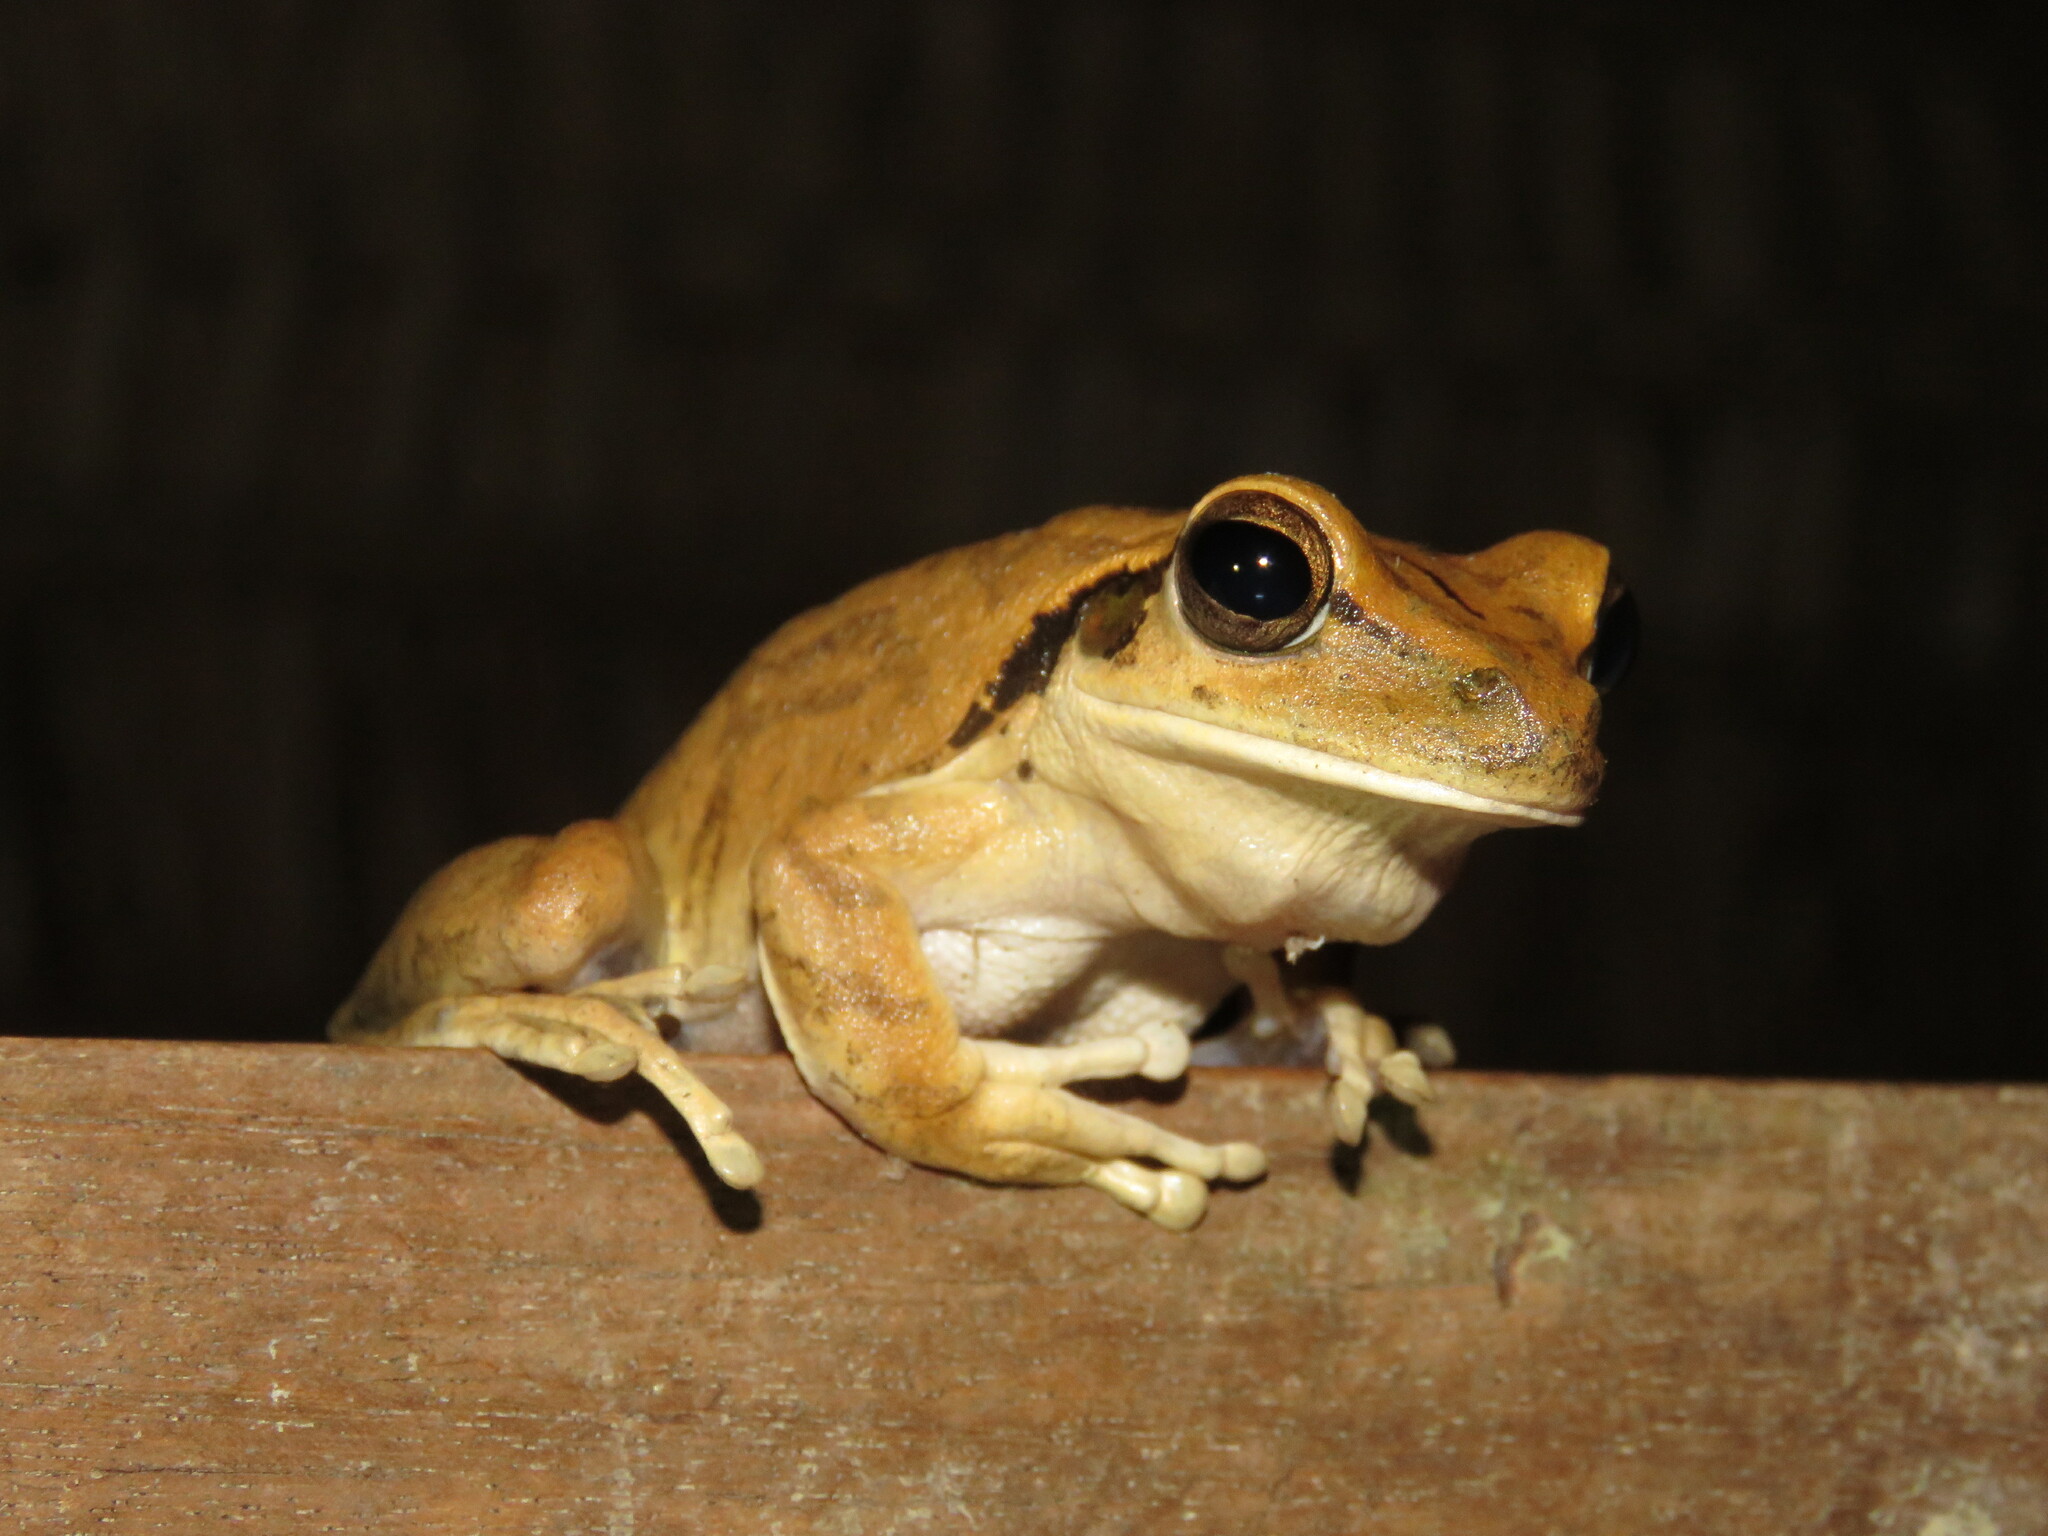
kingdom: Animalia
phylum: Chordata
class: Amphibia
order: Anura
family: Hylidae
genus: Boana
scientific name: Boana raniceps
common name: Chaco treefrog
